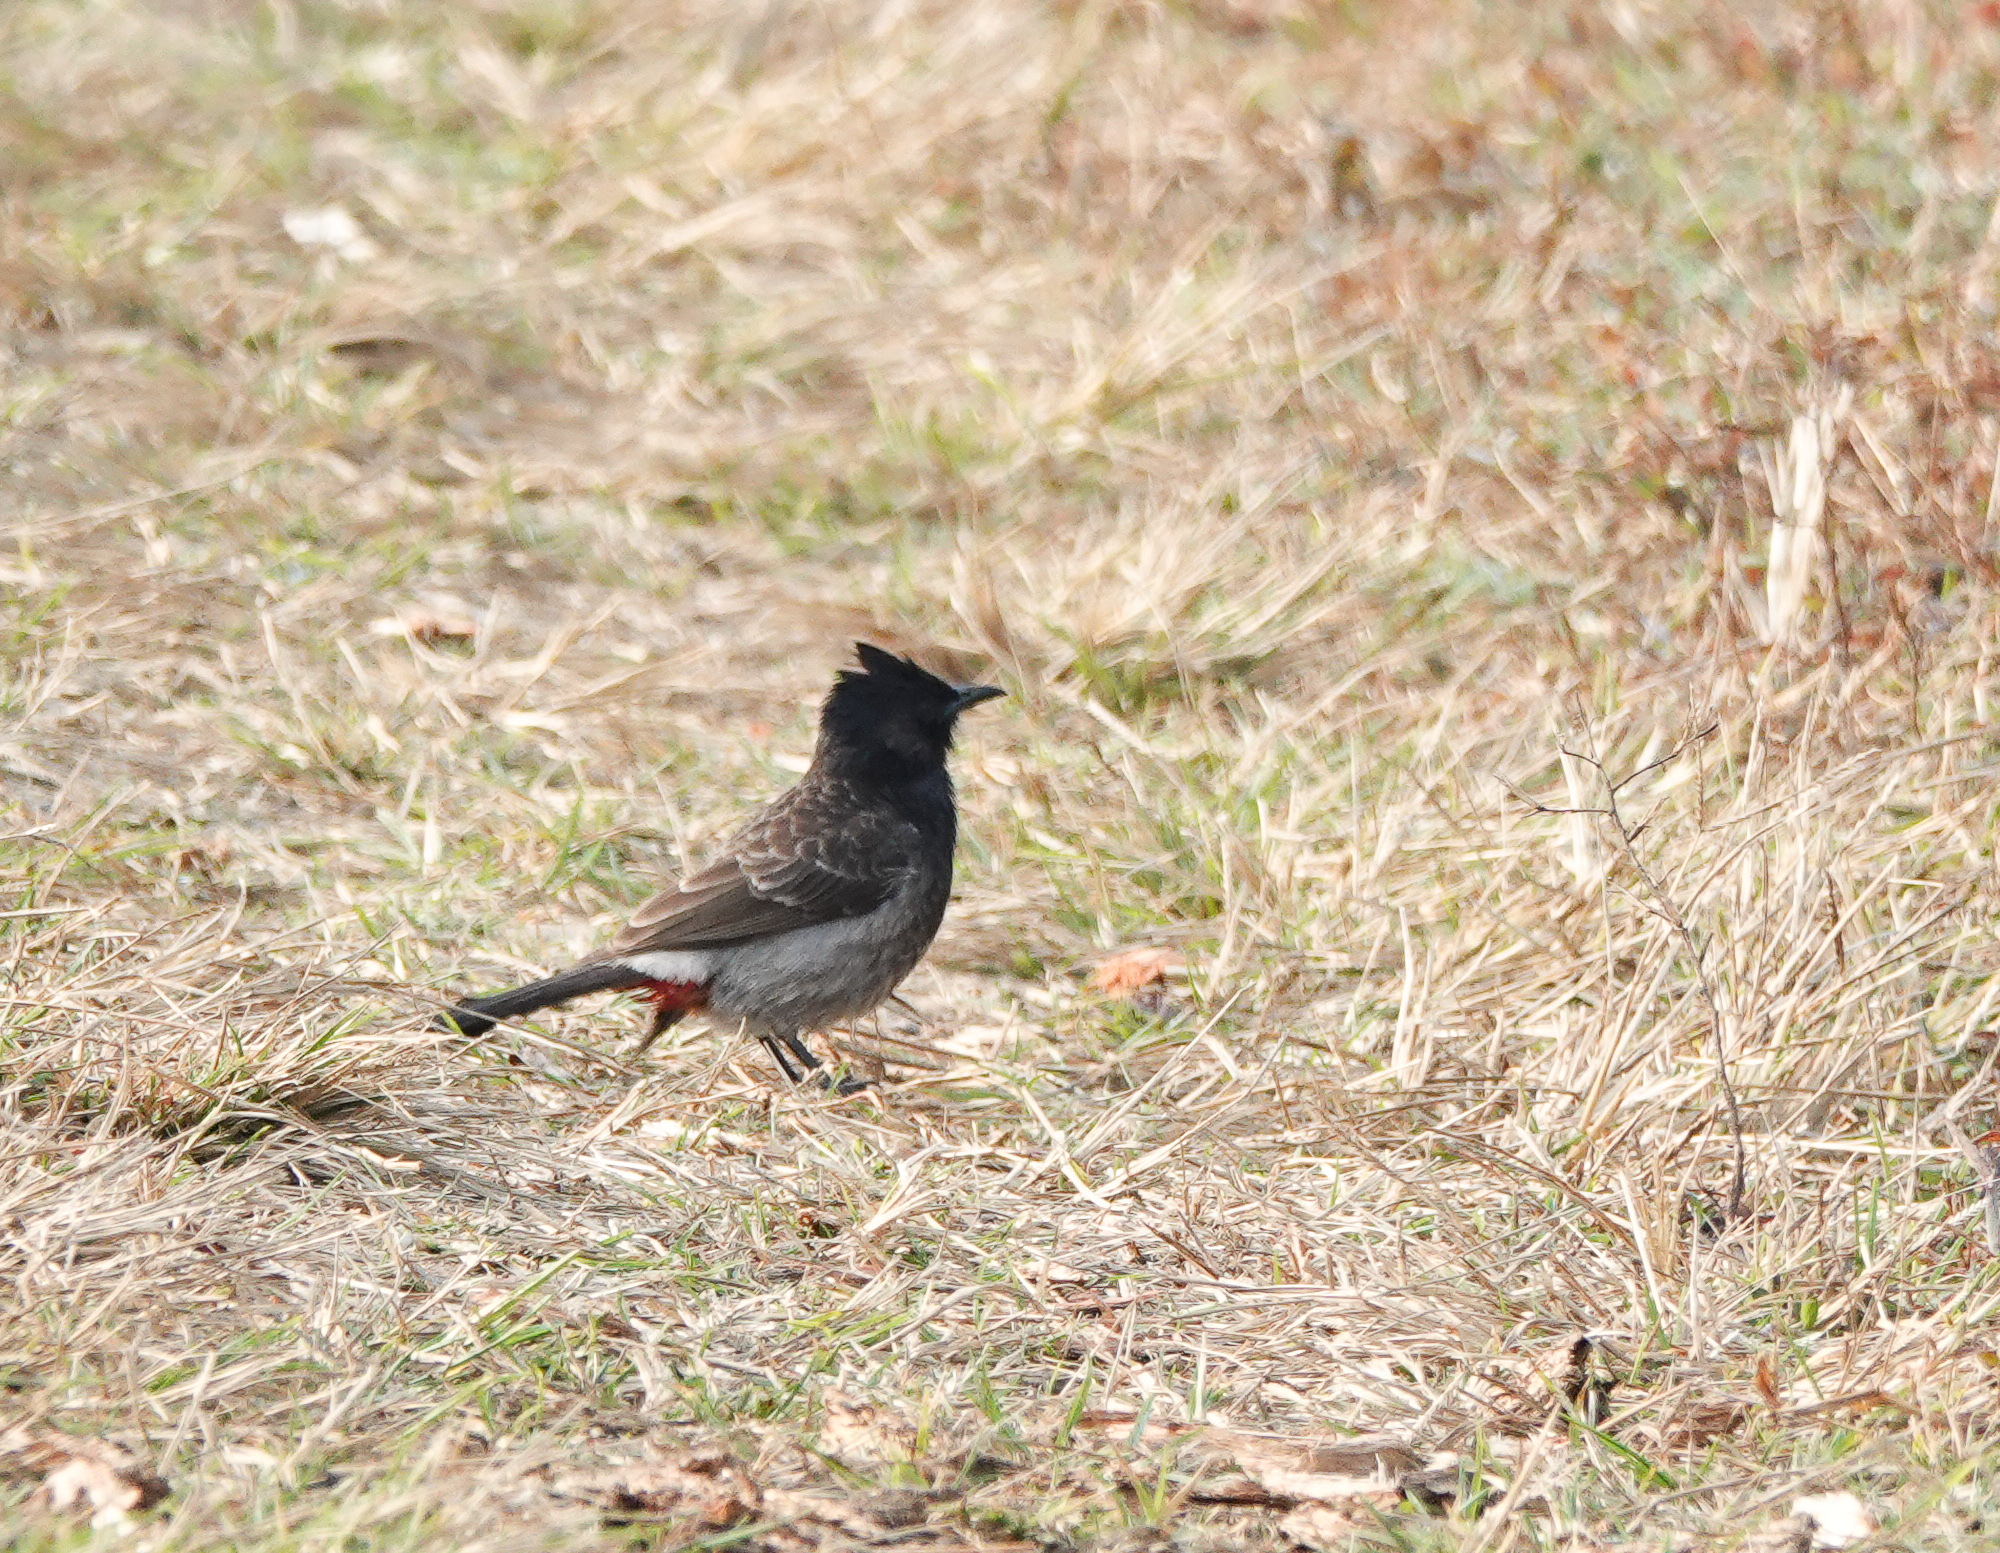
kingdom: Animalia
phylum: Chordata
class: Aves
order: Passeriformes
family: Pycnonotidae
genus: Pycnonotus
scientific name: Pycnonotus cafer
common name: Red-vented bulbul
